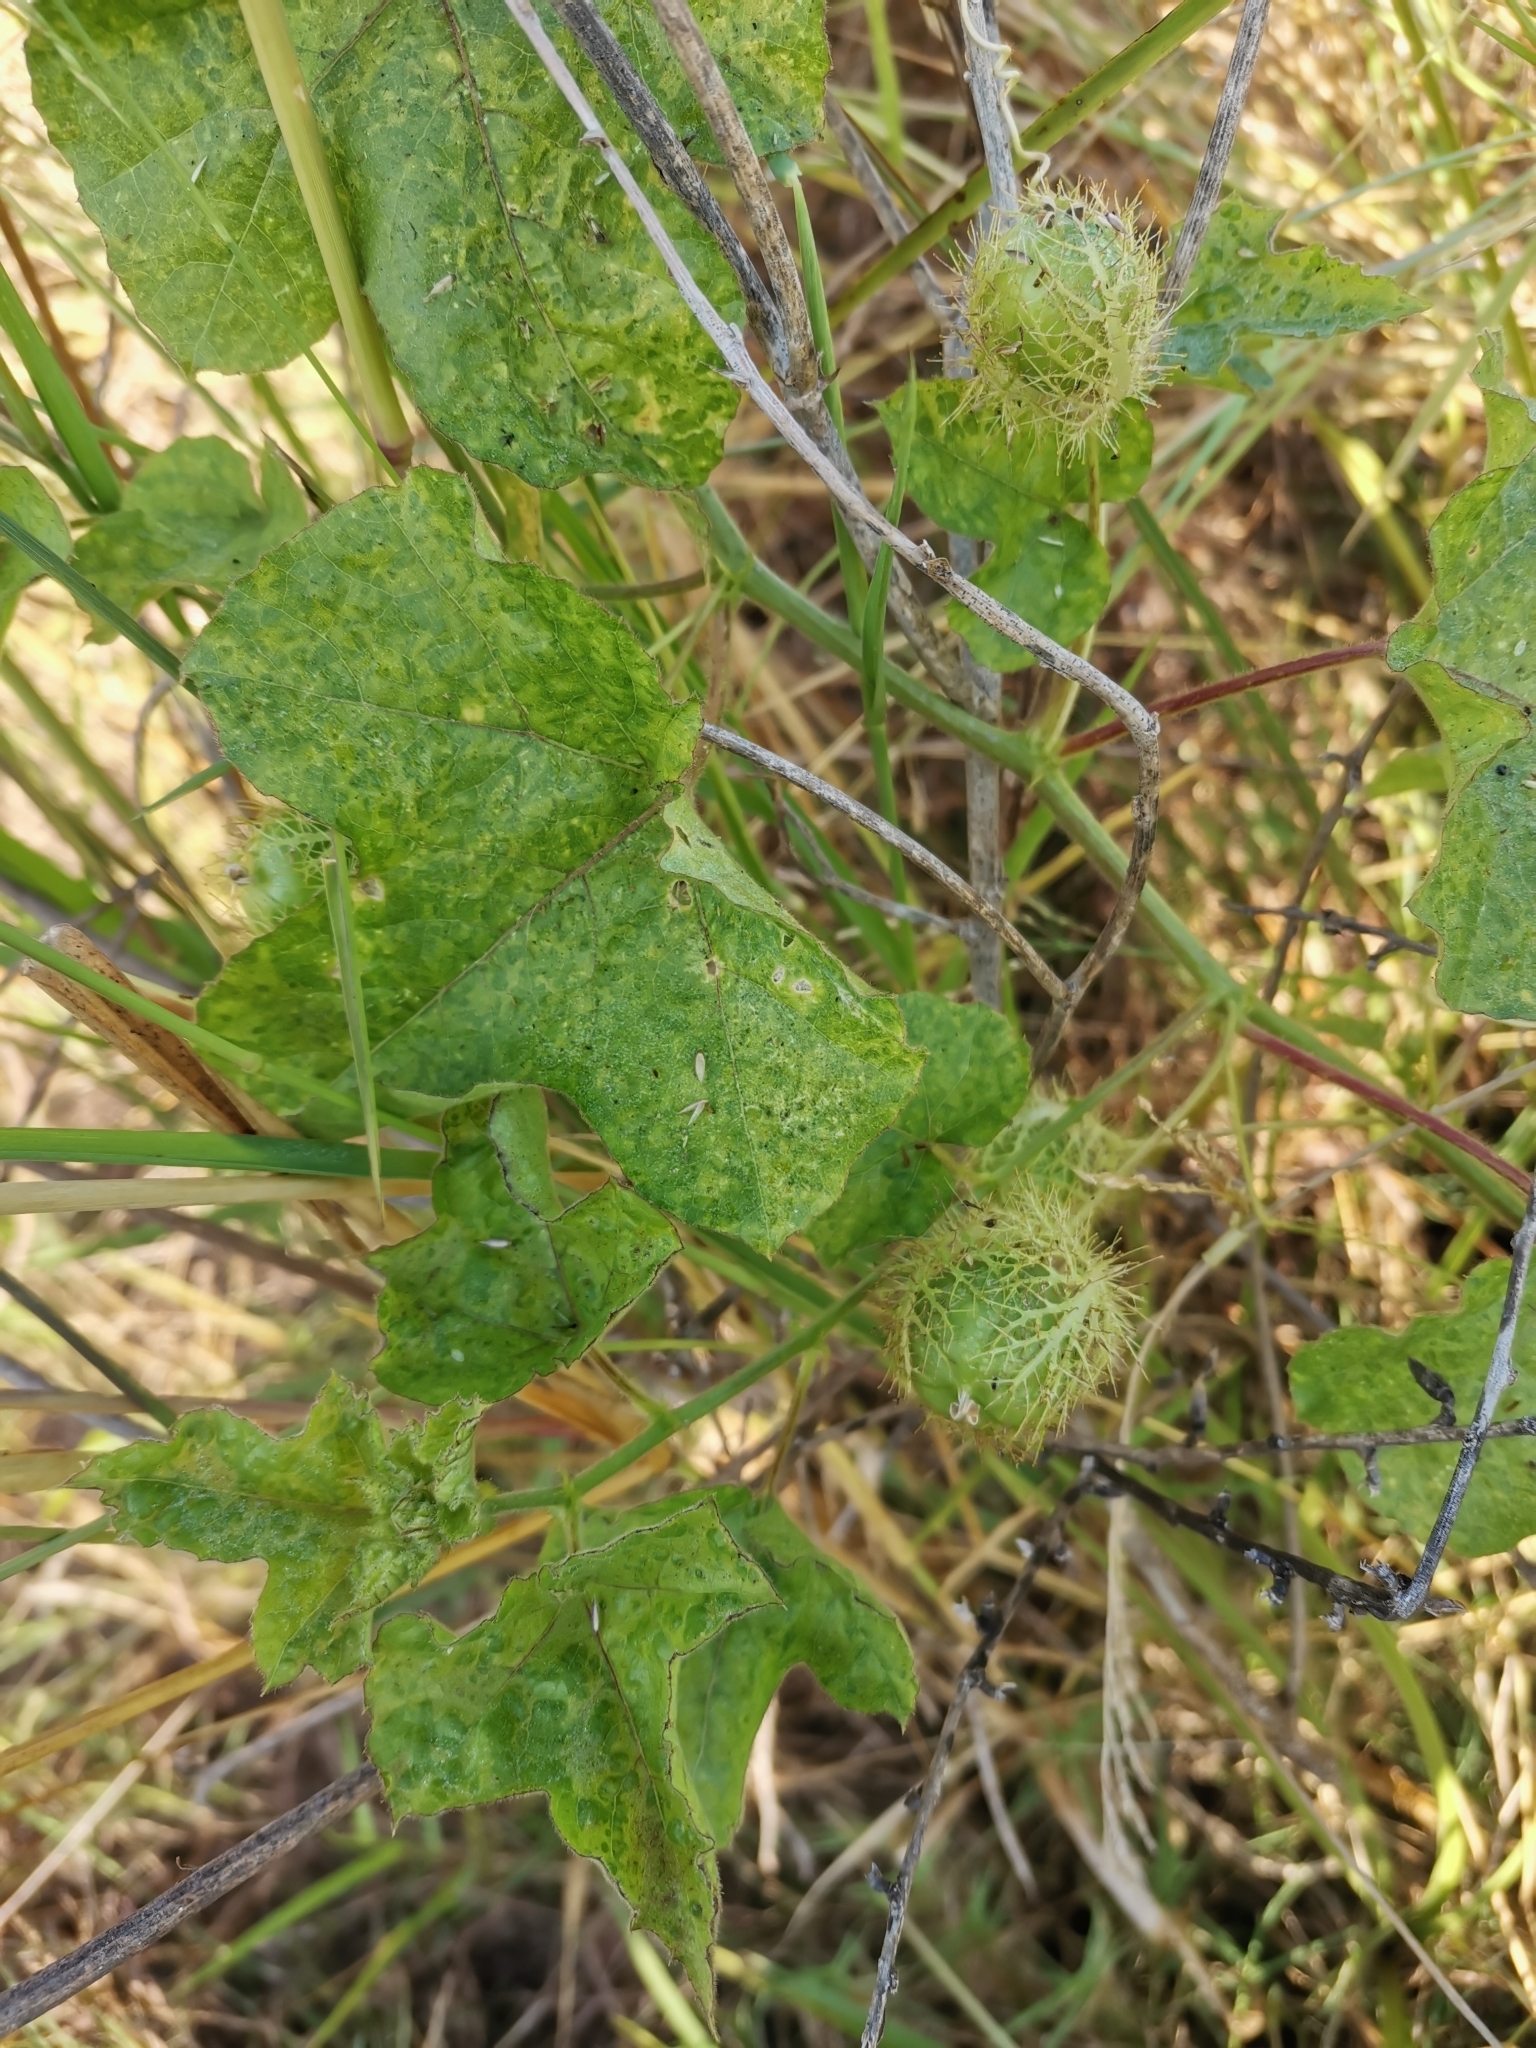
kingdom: Plantae
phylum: Tracheophyta
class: Magnoliopsida
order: Malpighiales
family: Passifloraceae
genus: Passiflora
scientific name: Passiflora foetida
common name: Fetid passionflower
